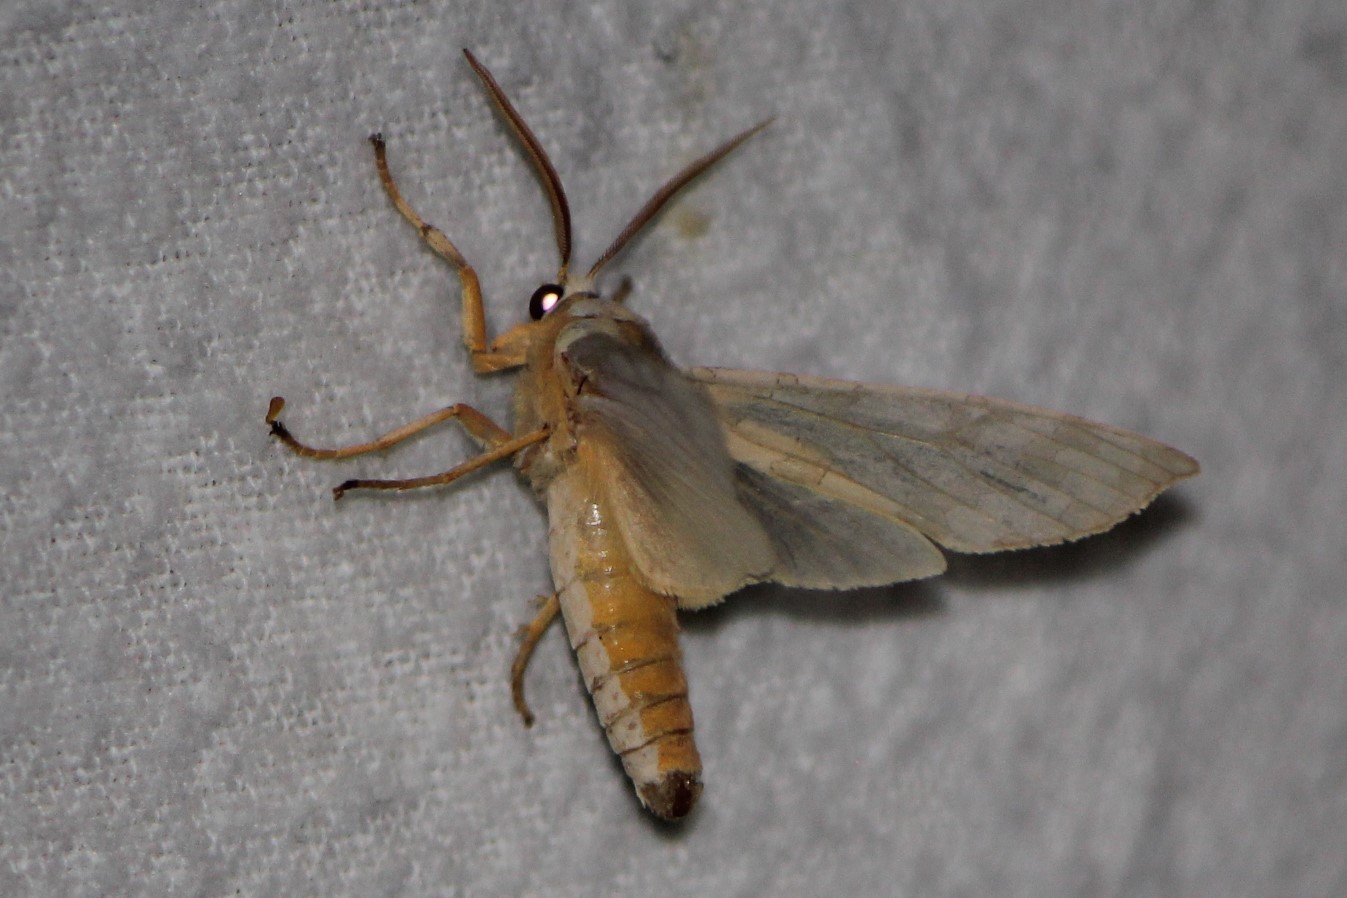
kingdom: Animalia
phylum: Arthropoda
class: Insecta
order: Lepidoptera
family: Erebidae
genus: Halysidota
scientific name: Halysidota
